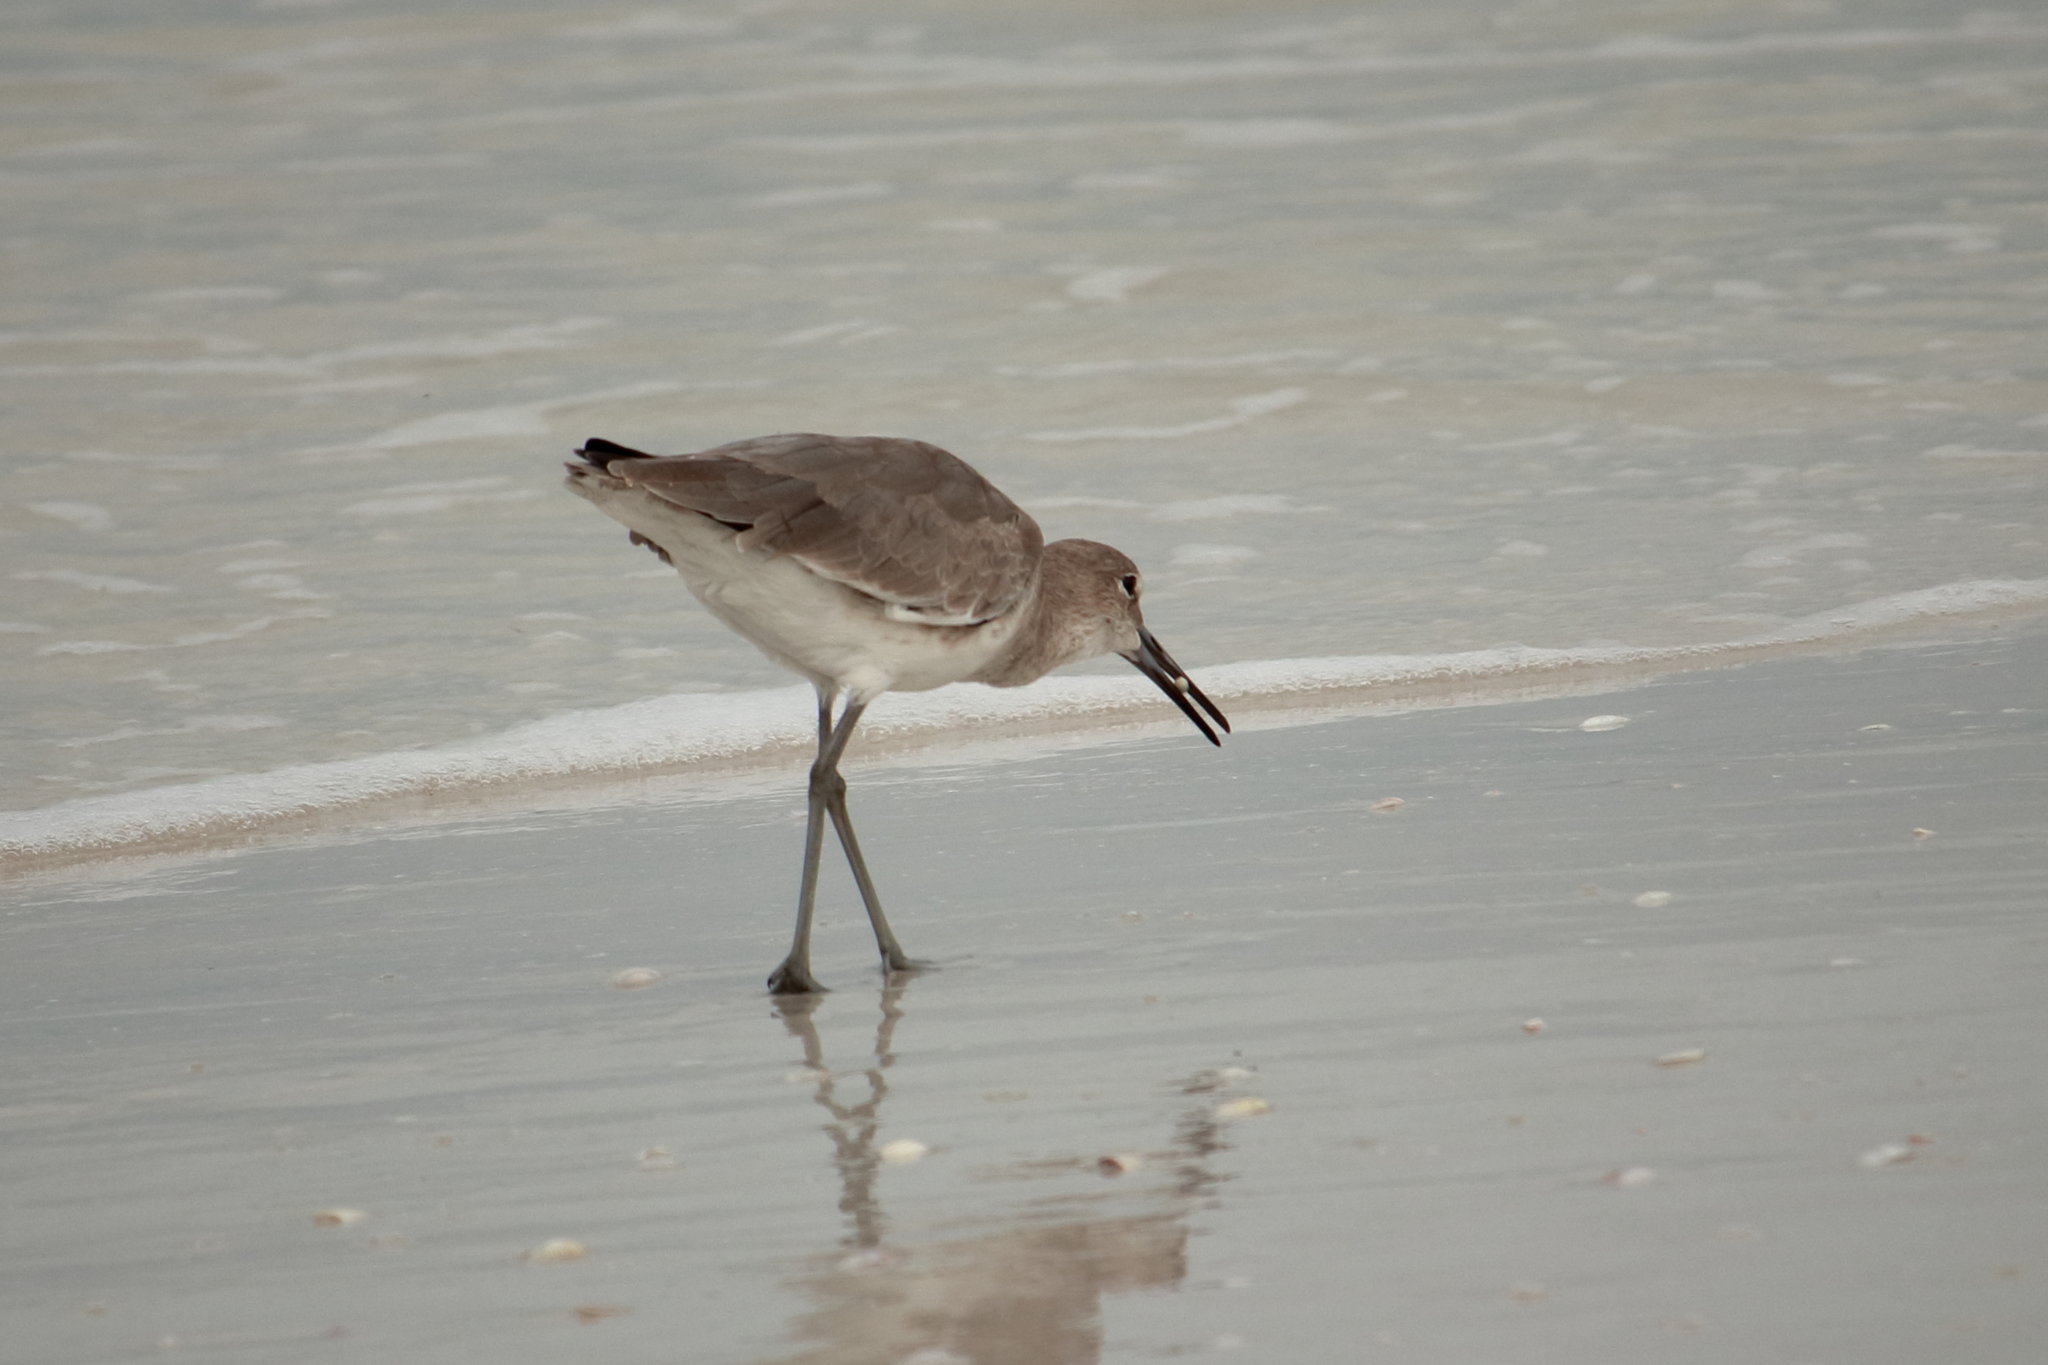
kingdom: Animalia
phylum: Chordata
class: Aves
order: Charadriiformes
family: Scolopacidae
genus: Tringa
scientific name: Tringa semipalmata
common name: Willet
